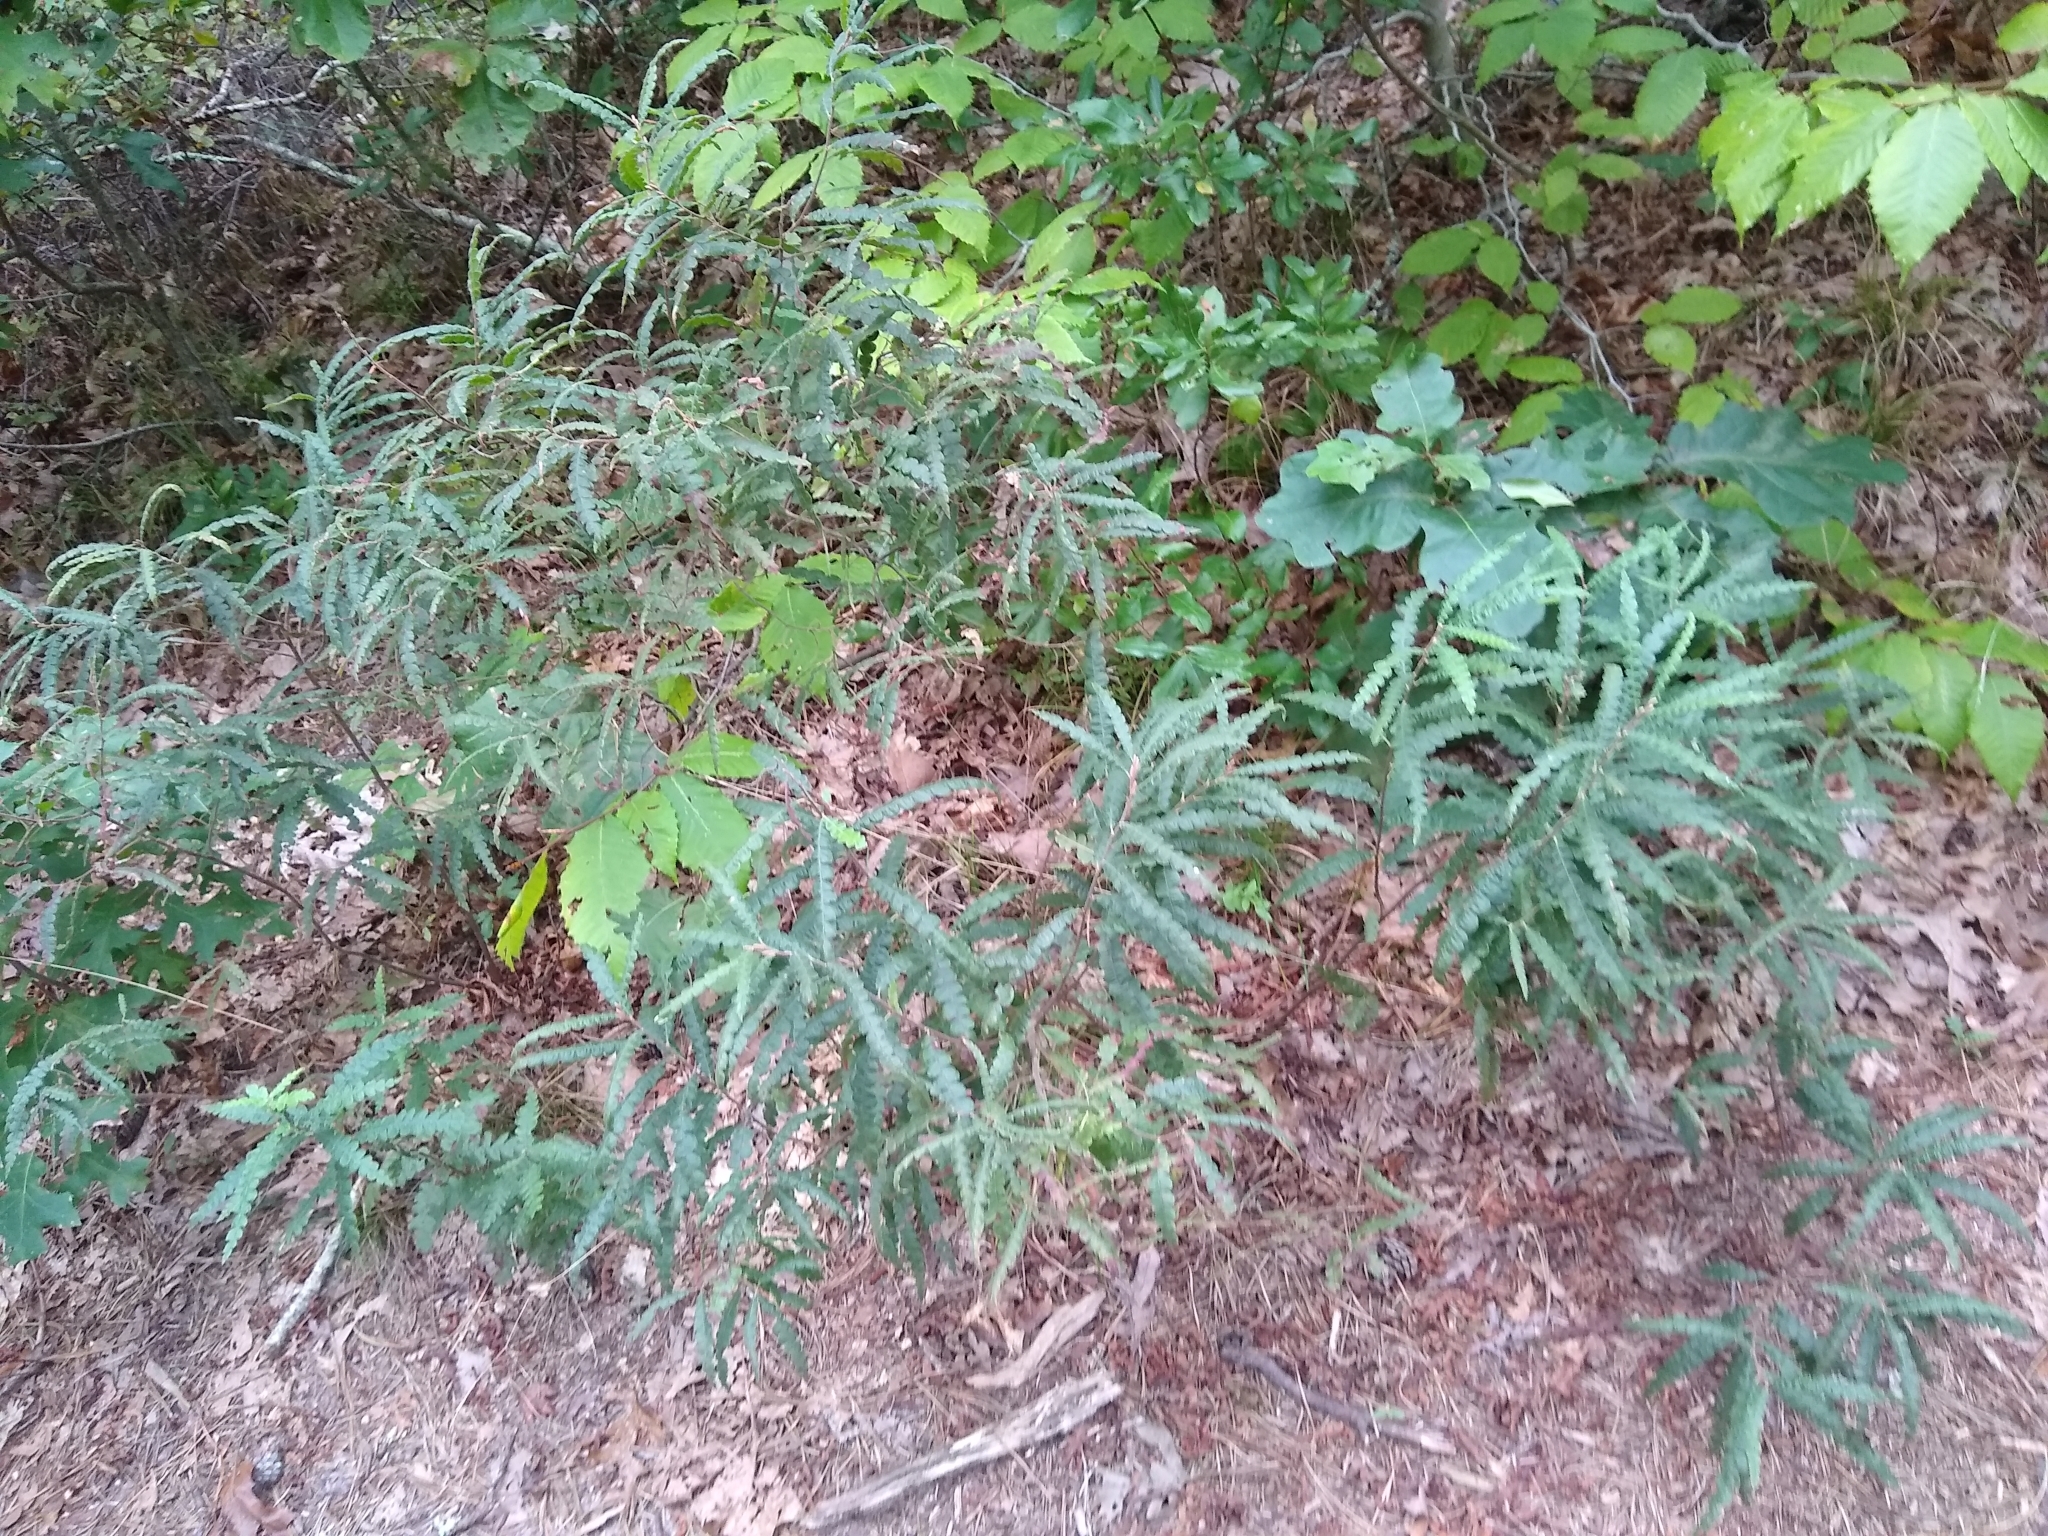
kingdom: Plantae
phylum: Tracheophyta
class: Magnoliopsida
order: Fagales
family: Myricaceae
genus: Comptonia
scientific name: Comptonia peregrina
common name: Sweet-fern
